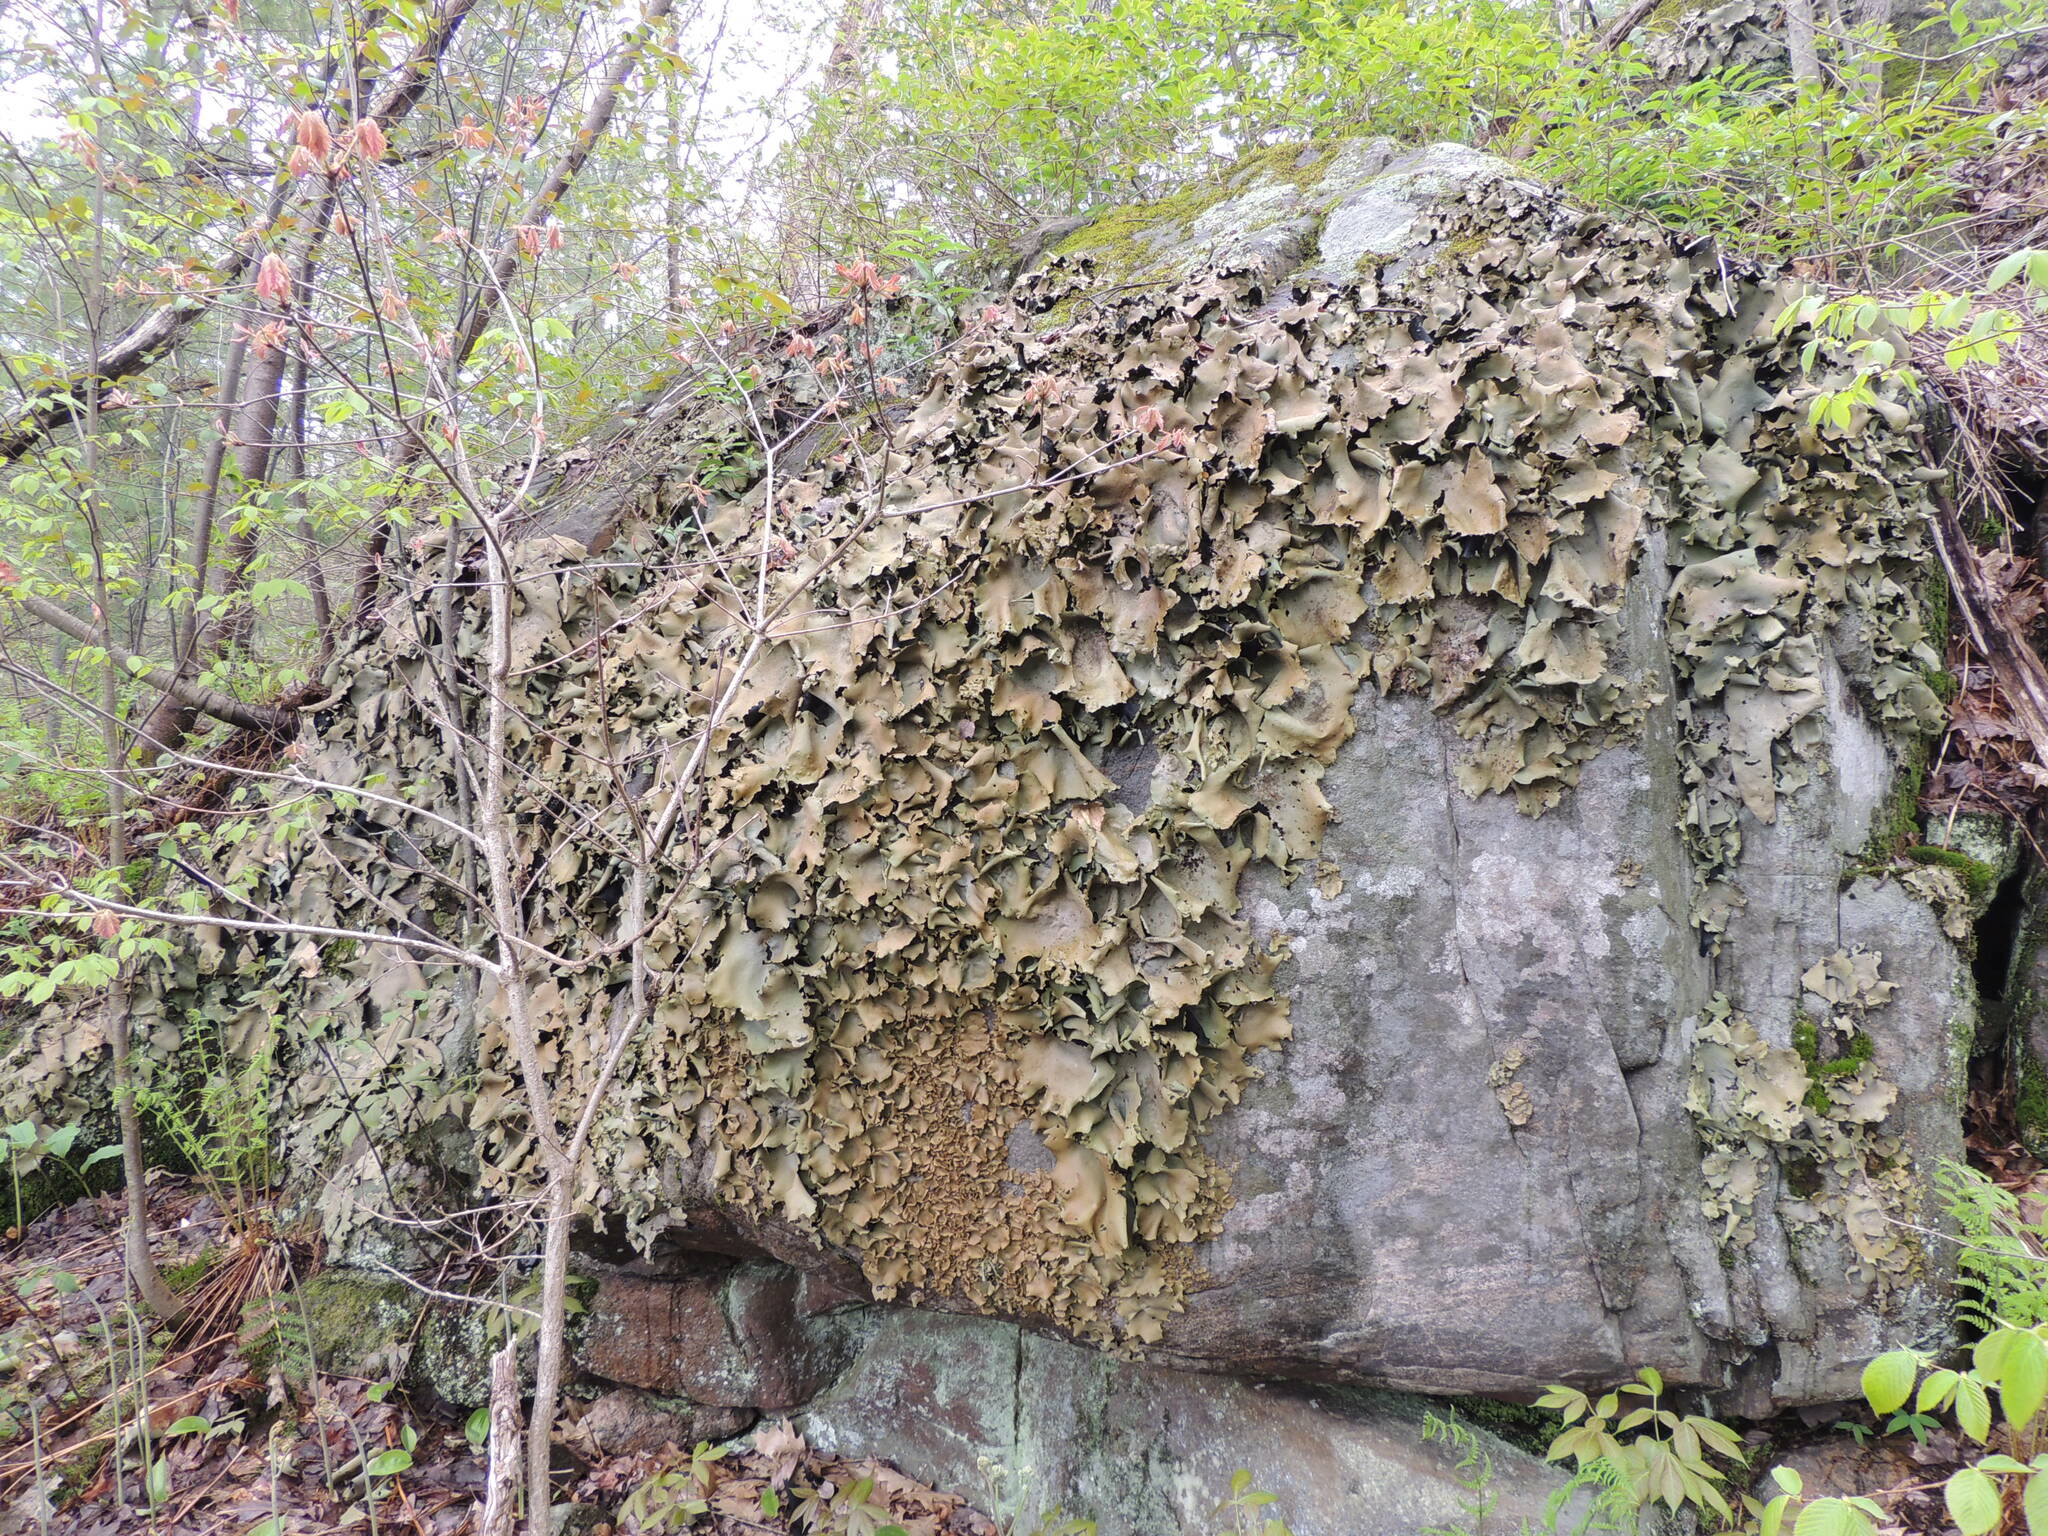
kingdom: Fungi
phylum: Ascomycota
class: Lecanoromycetes
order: Umbilicariales
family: Umbilicariaceae
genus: Umbilicaria
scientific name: Umbilicaria mammulata
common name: Smooth rock tripe
